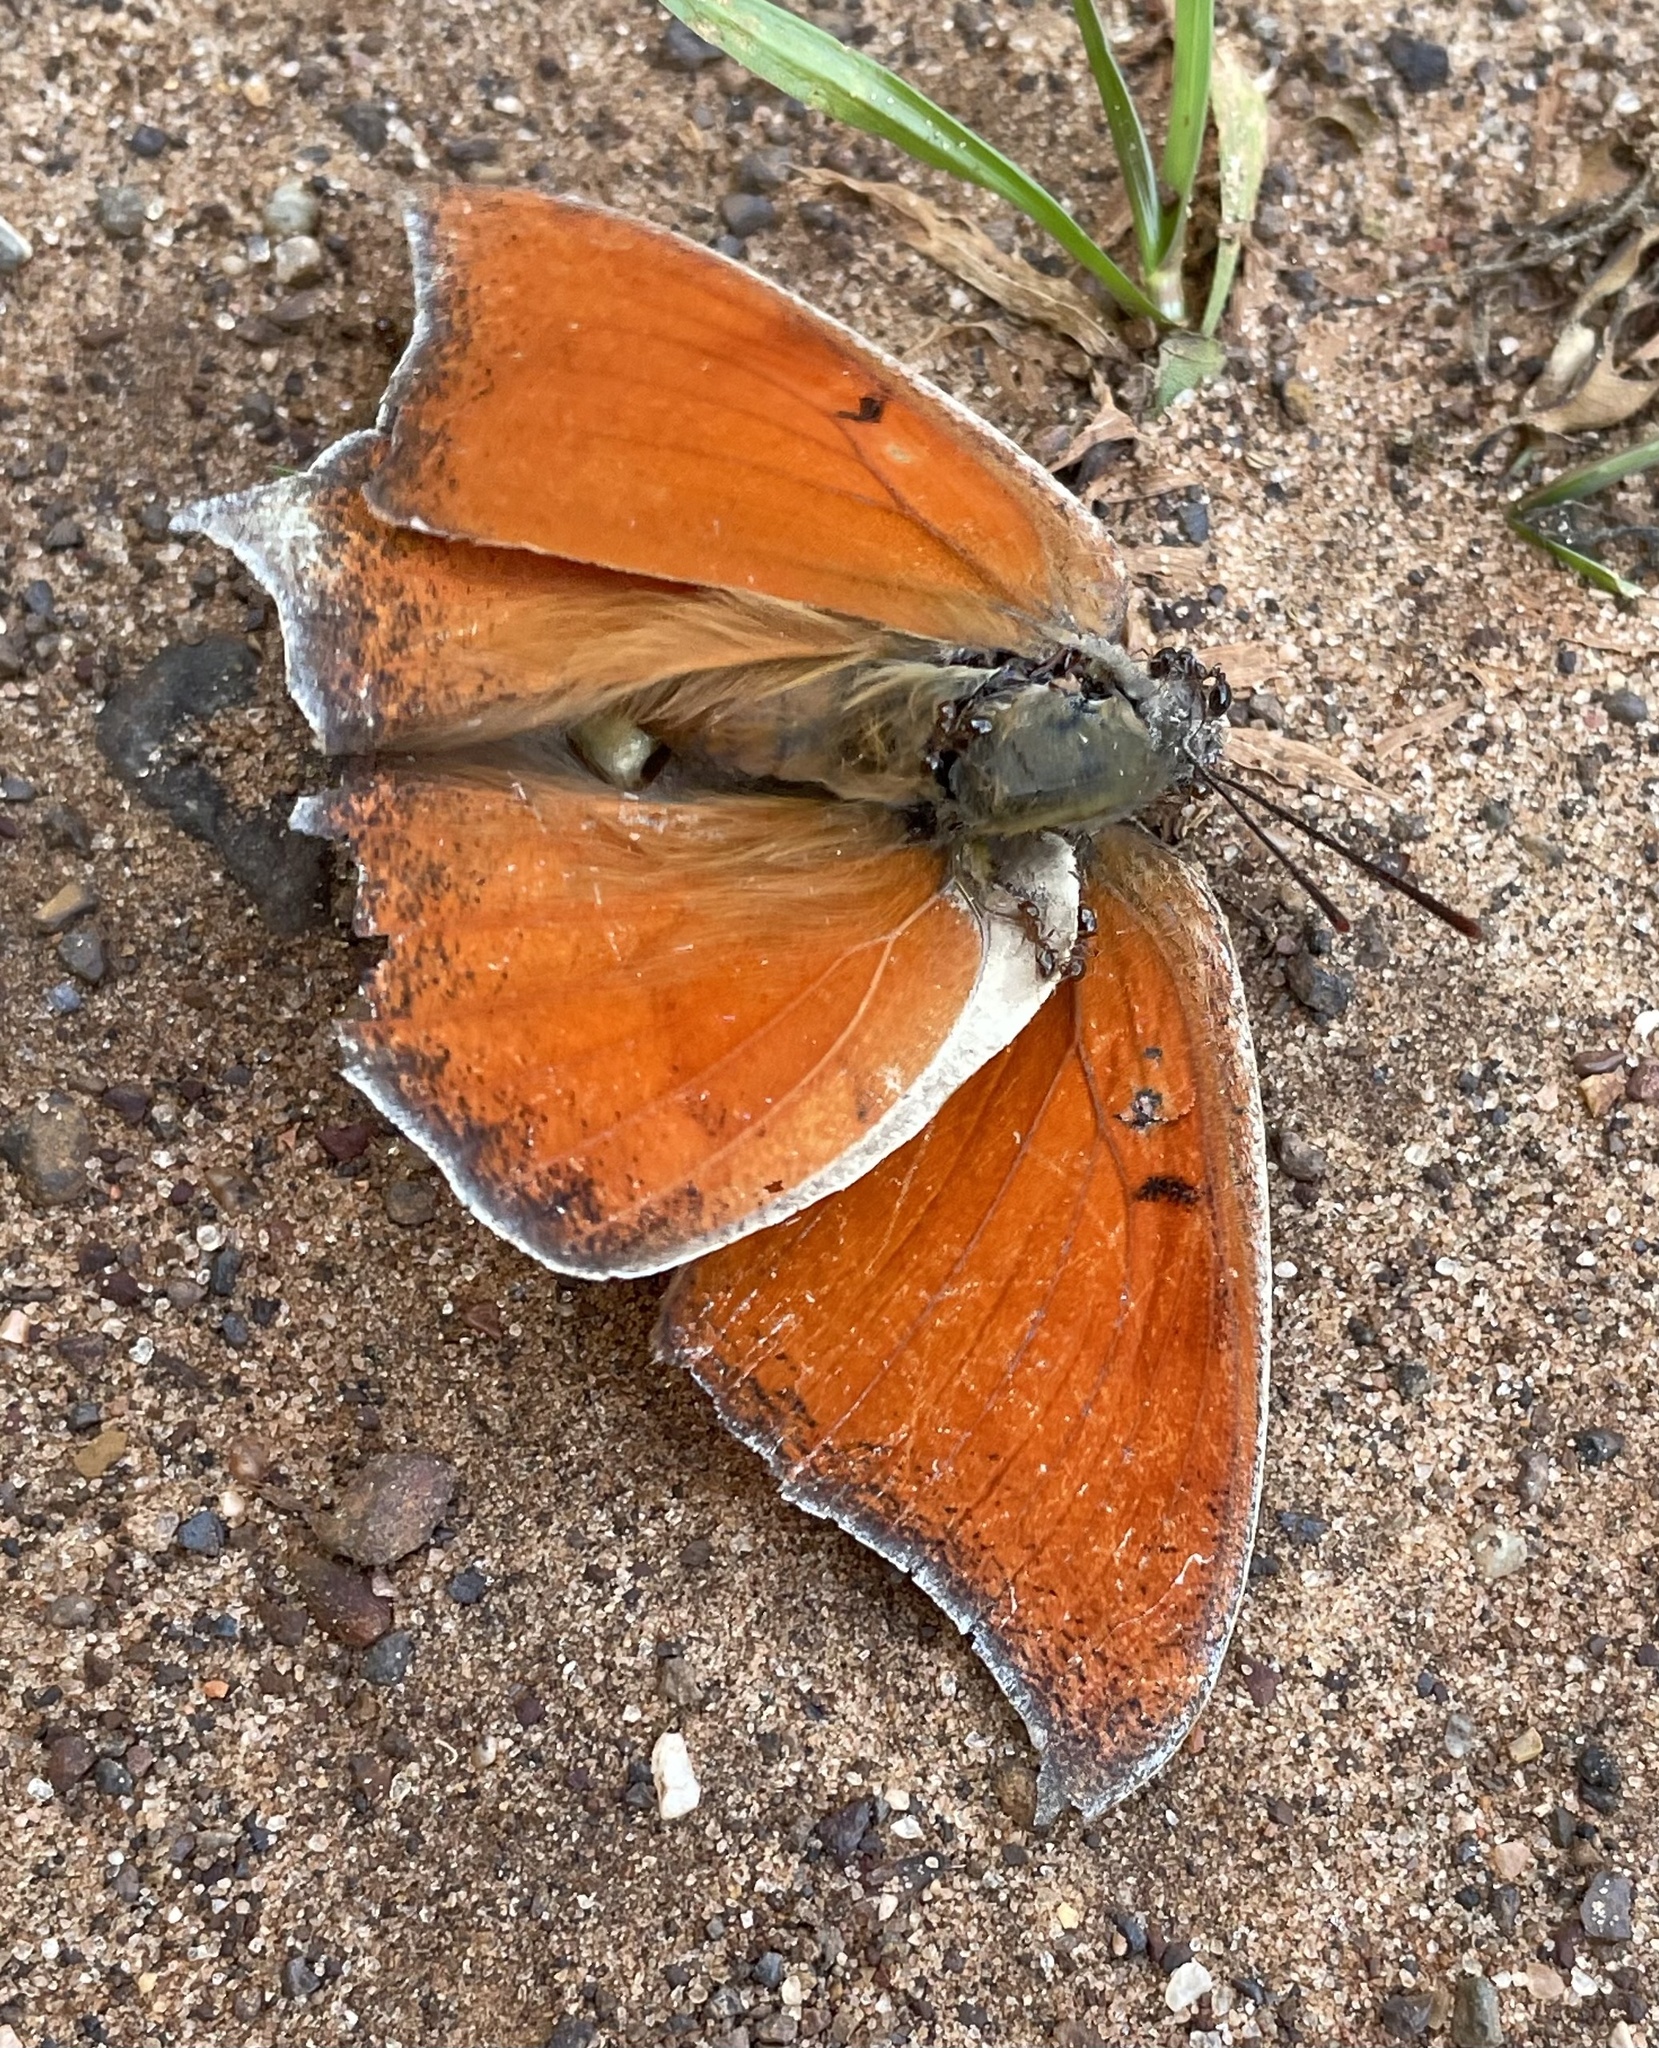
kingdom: Animalia
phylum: Arthropoda
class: Insecta
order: Lepidoptera
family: Nymphalidae
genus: Anaea
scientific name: Anaea andria
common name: Goatweed leafwing
